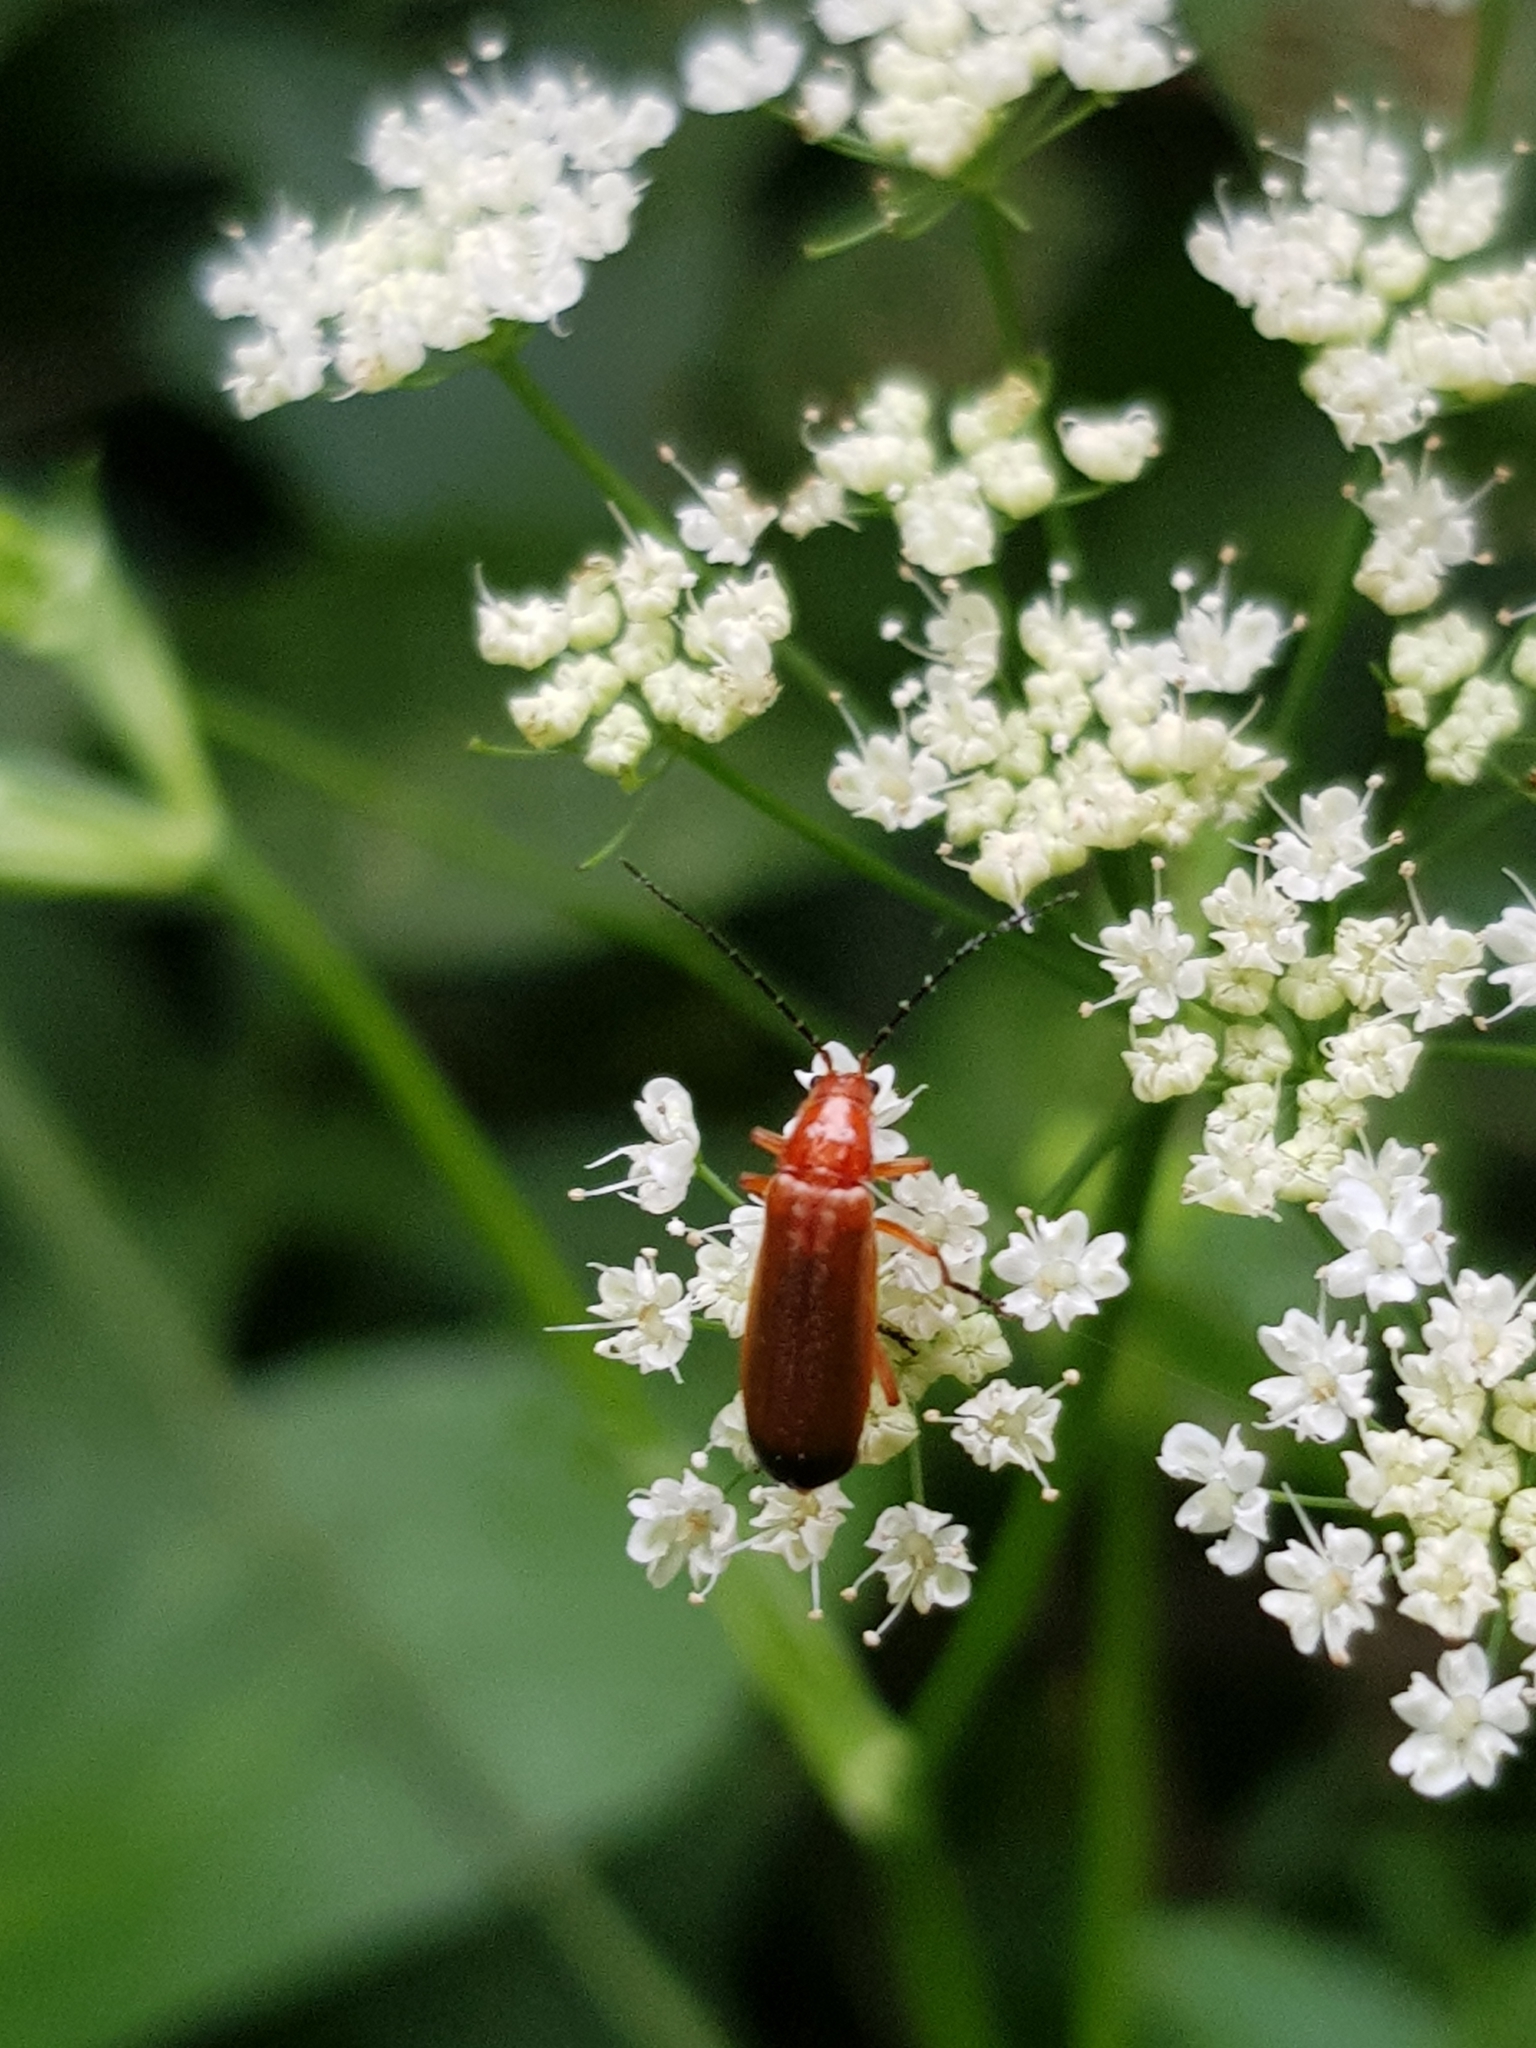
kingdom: Animalia
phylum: Arthropoda
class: Insecta
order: Coleoptera
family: Cantharidae
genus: Rhagonycha
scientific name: Rhagonycha fulva
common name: Common red soldier beetle
